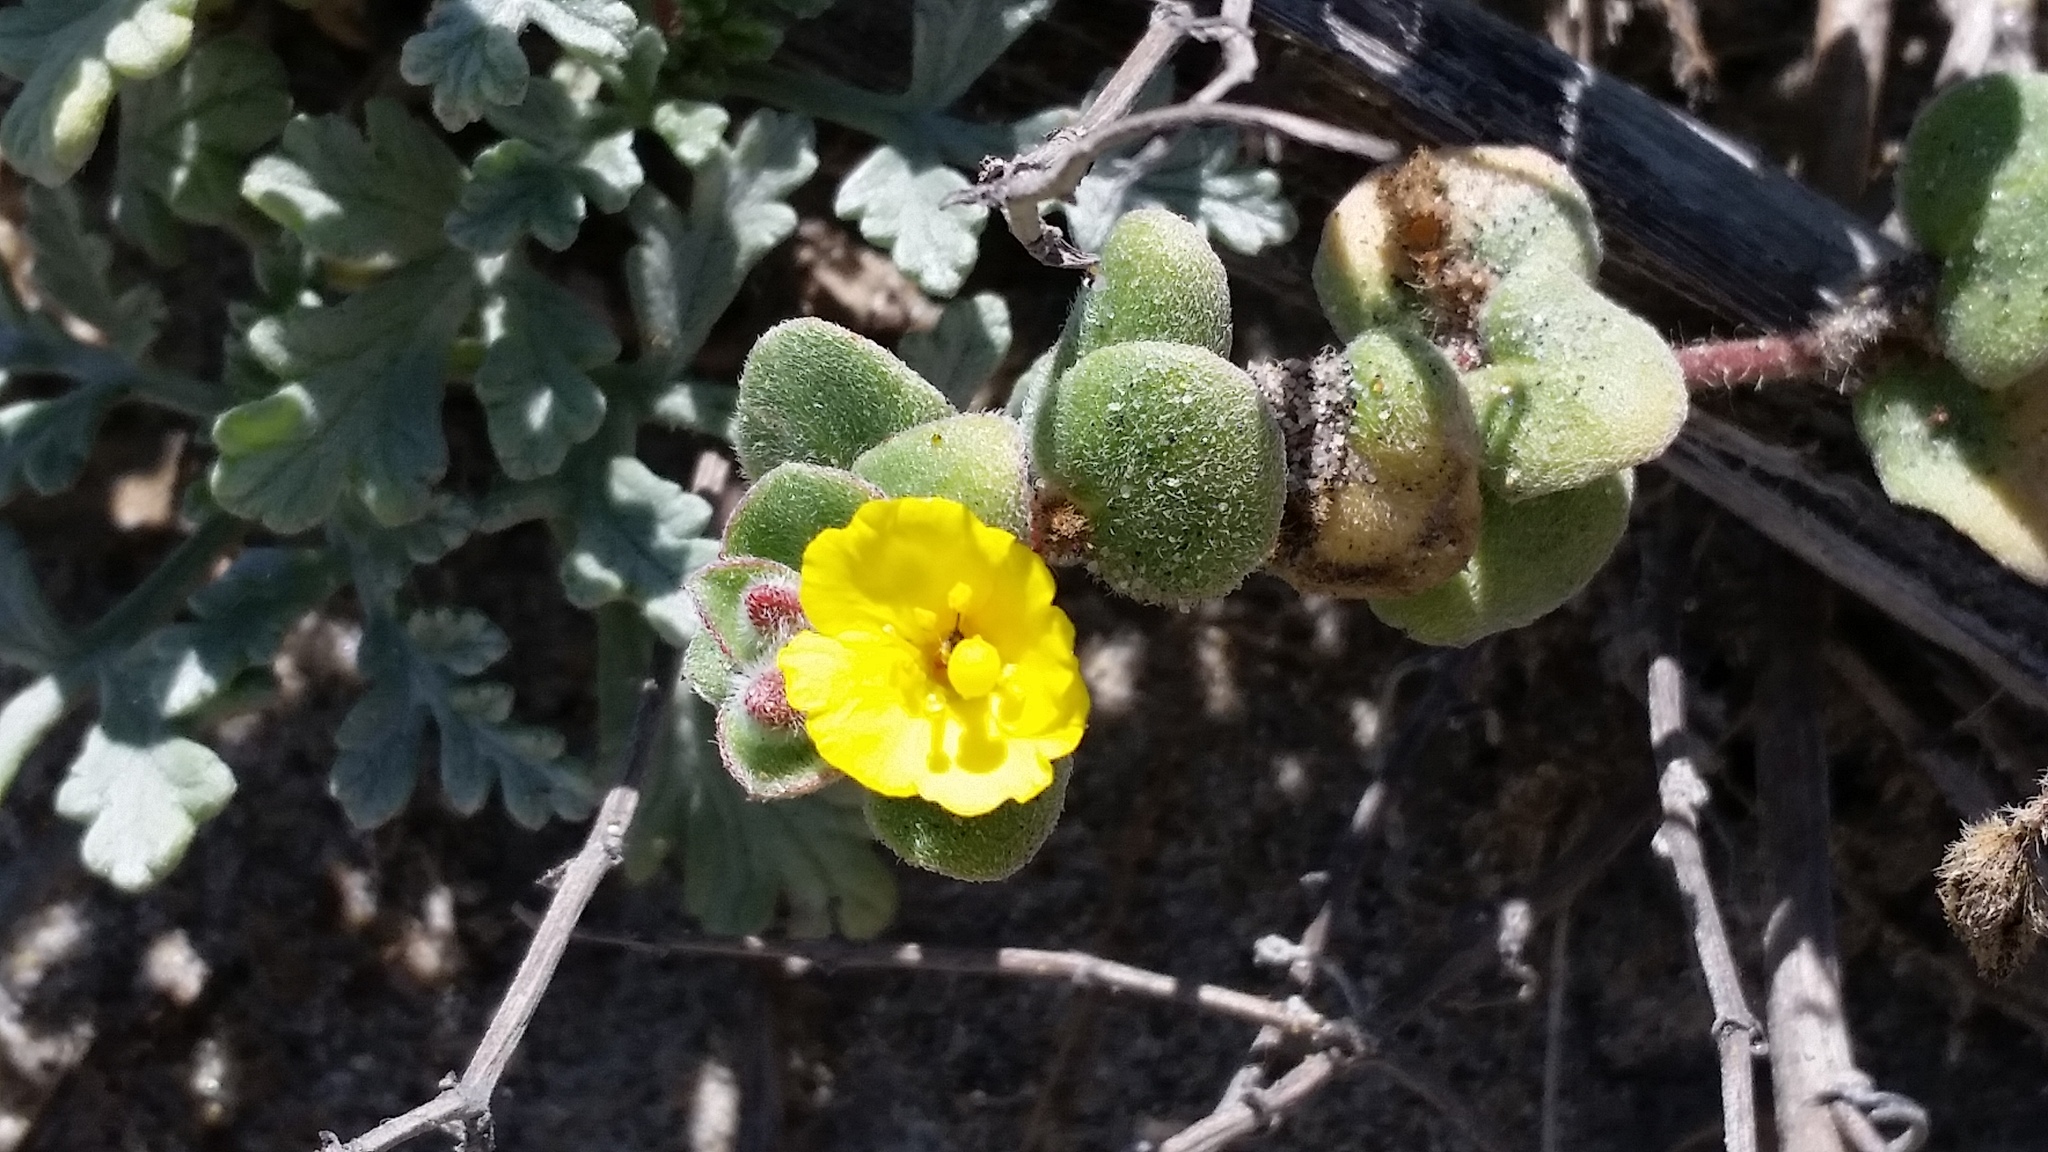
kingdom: Plantae
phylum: Tracheophyta
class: Magnoliopsida
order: Myrtales
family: Onagraceae
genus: Camissoniopsis
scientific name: Camissoniopsis cheiranthifolia
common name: Beach suncup
